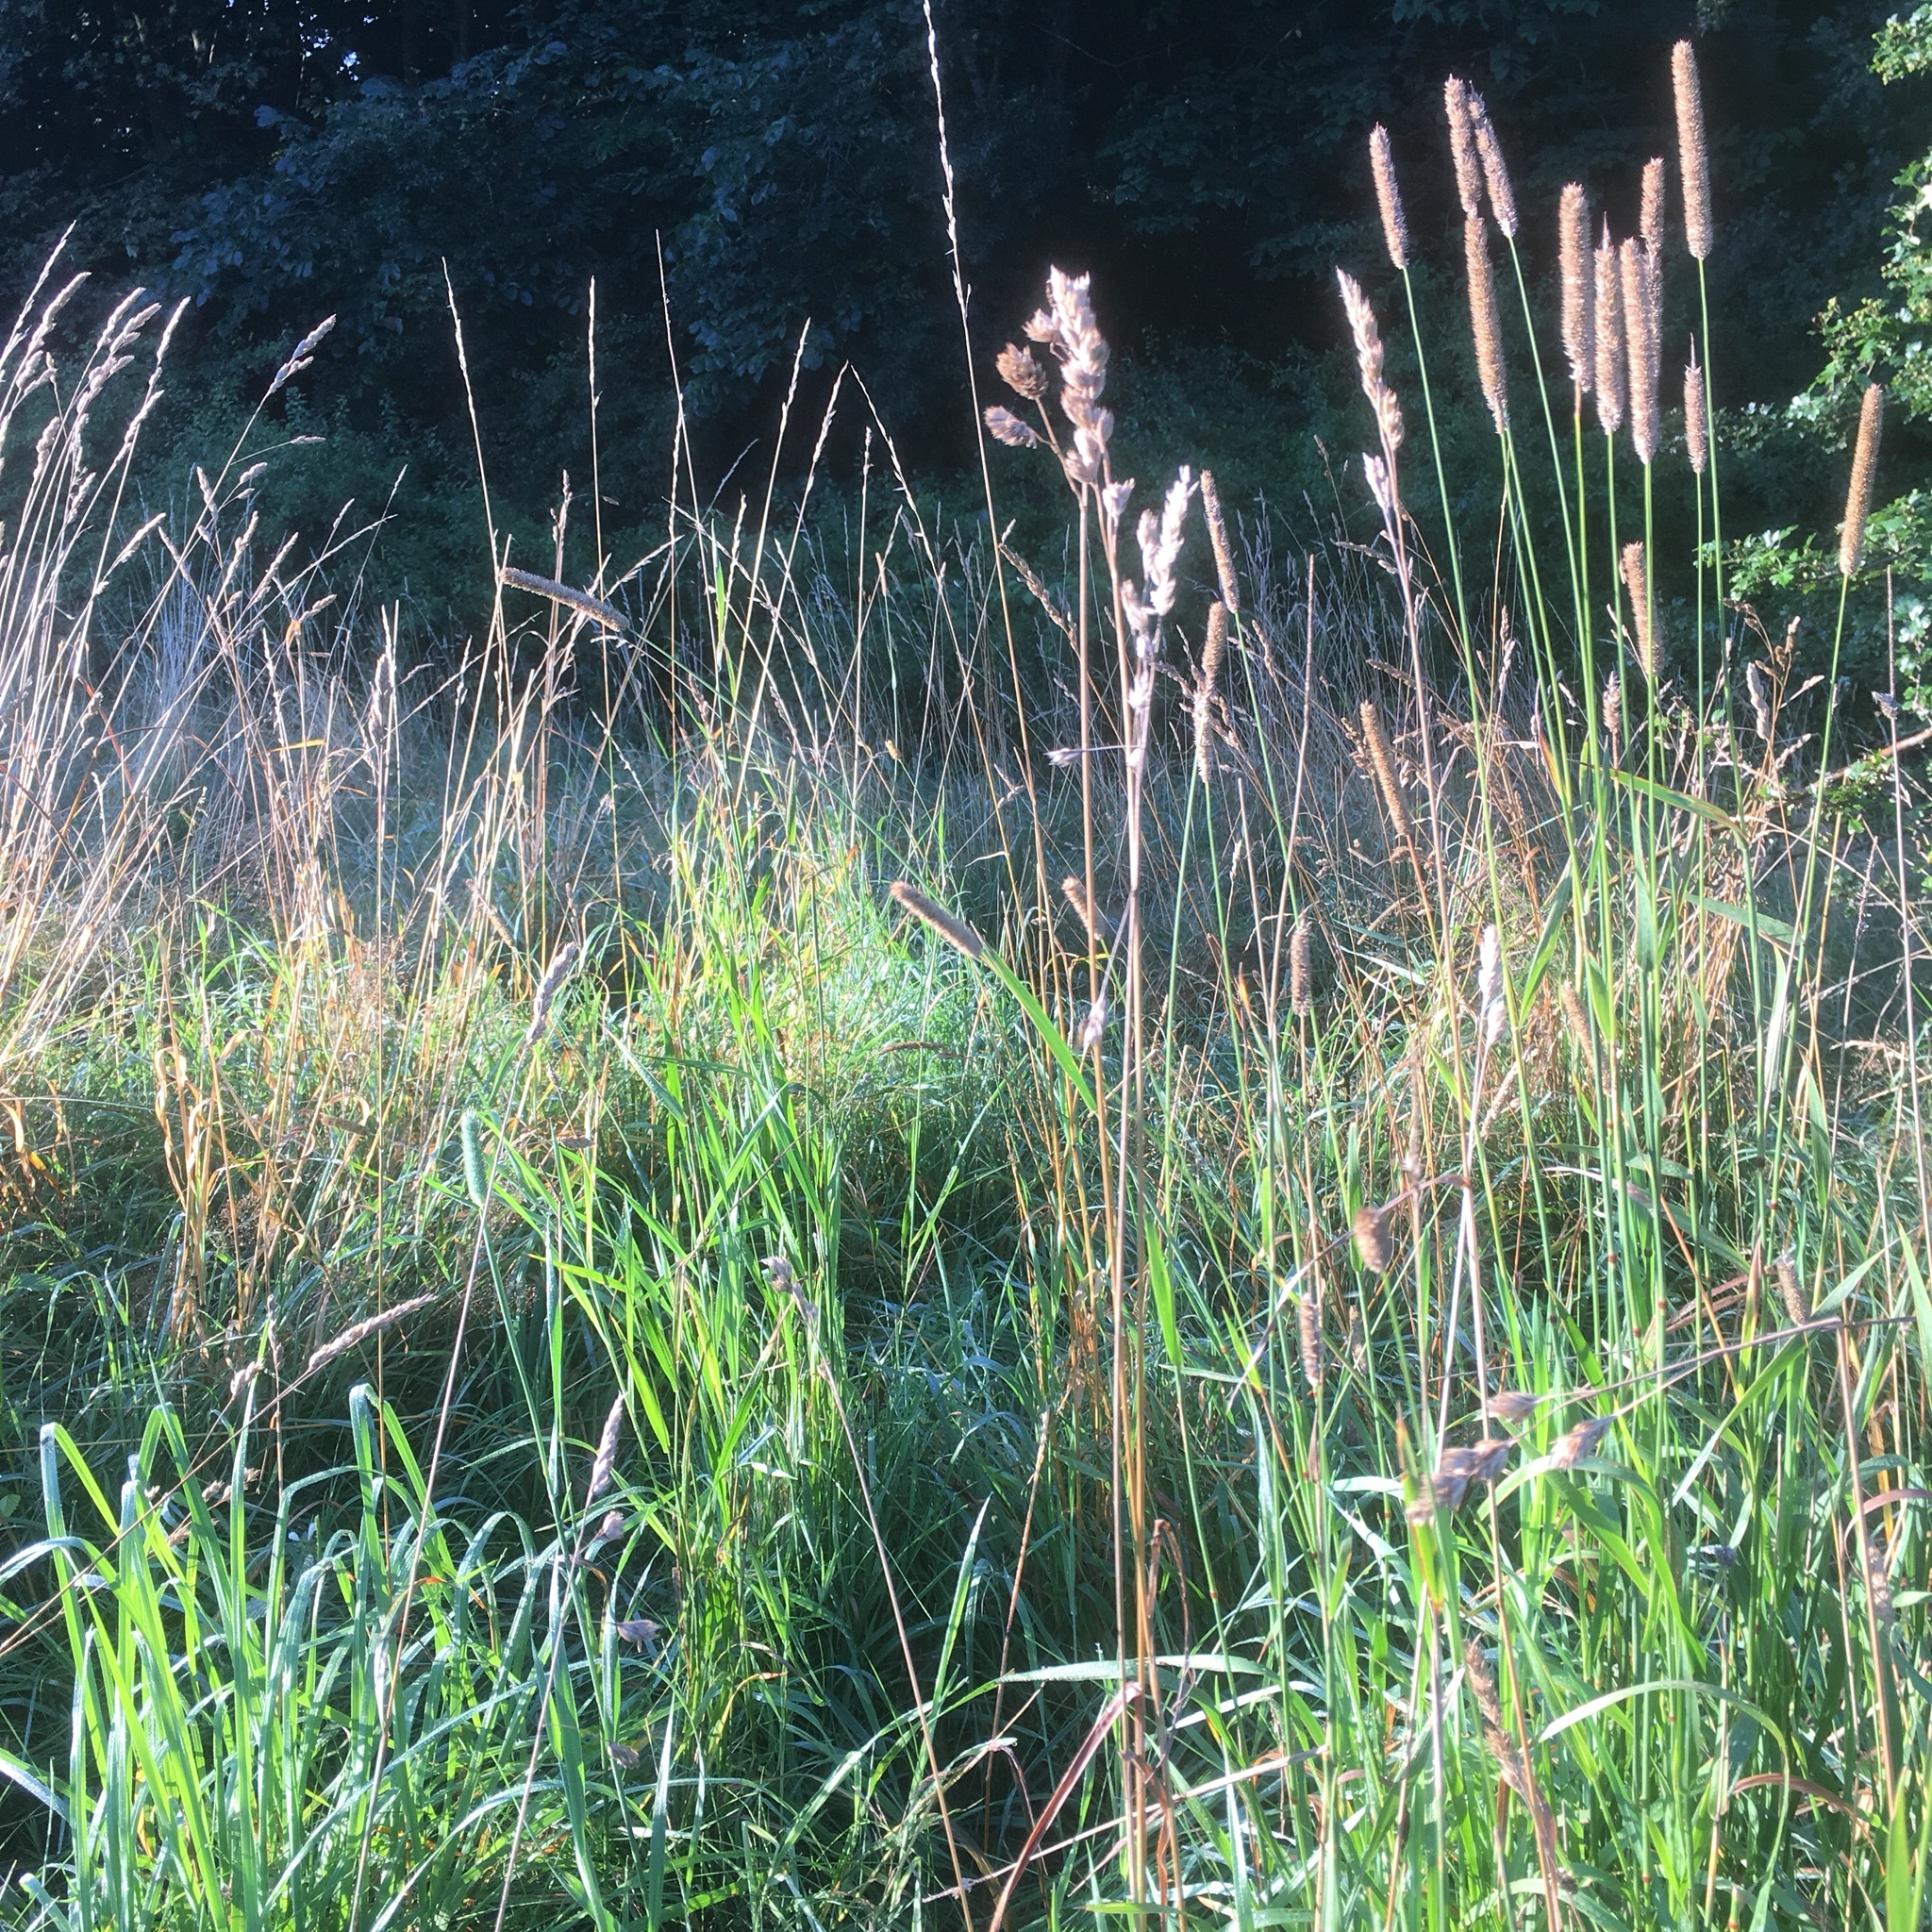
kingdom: Plantae
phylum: Tracheophyta
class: Liliopsida
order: Poales
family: Poaceae
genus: Dactylis
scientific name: Dactylis glomerata
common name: Orchardgrass
